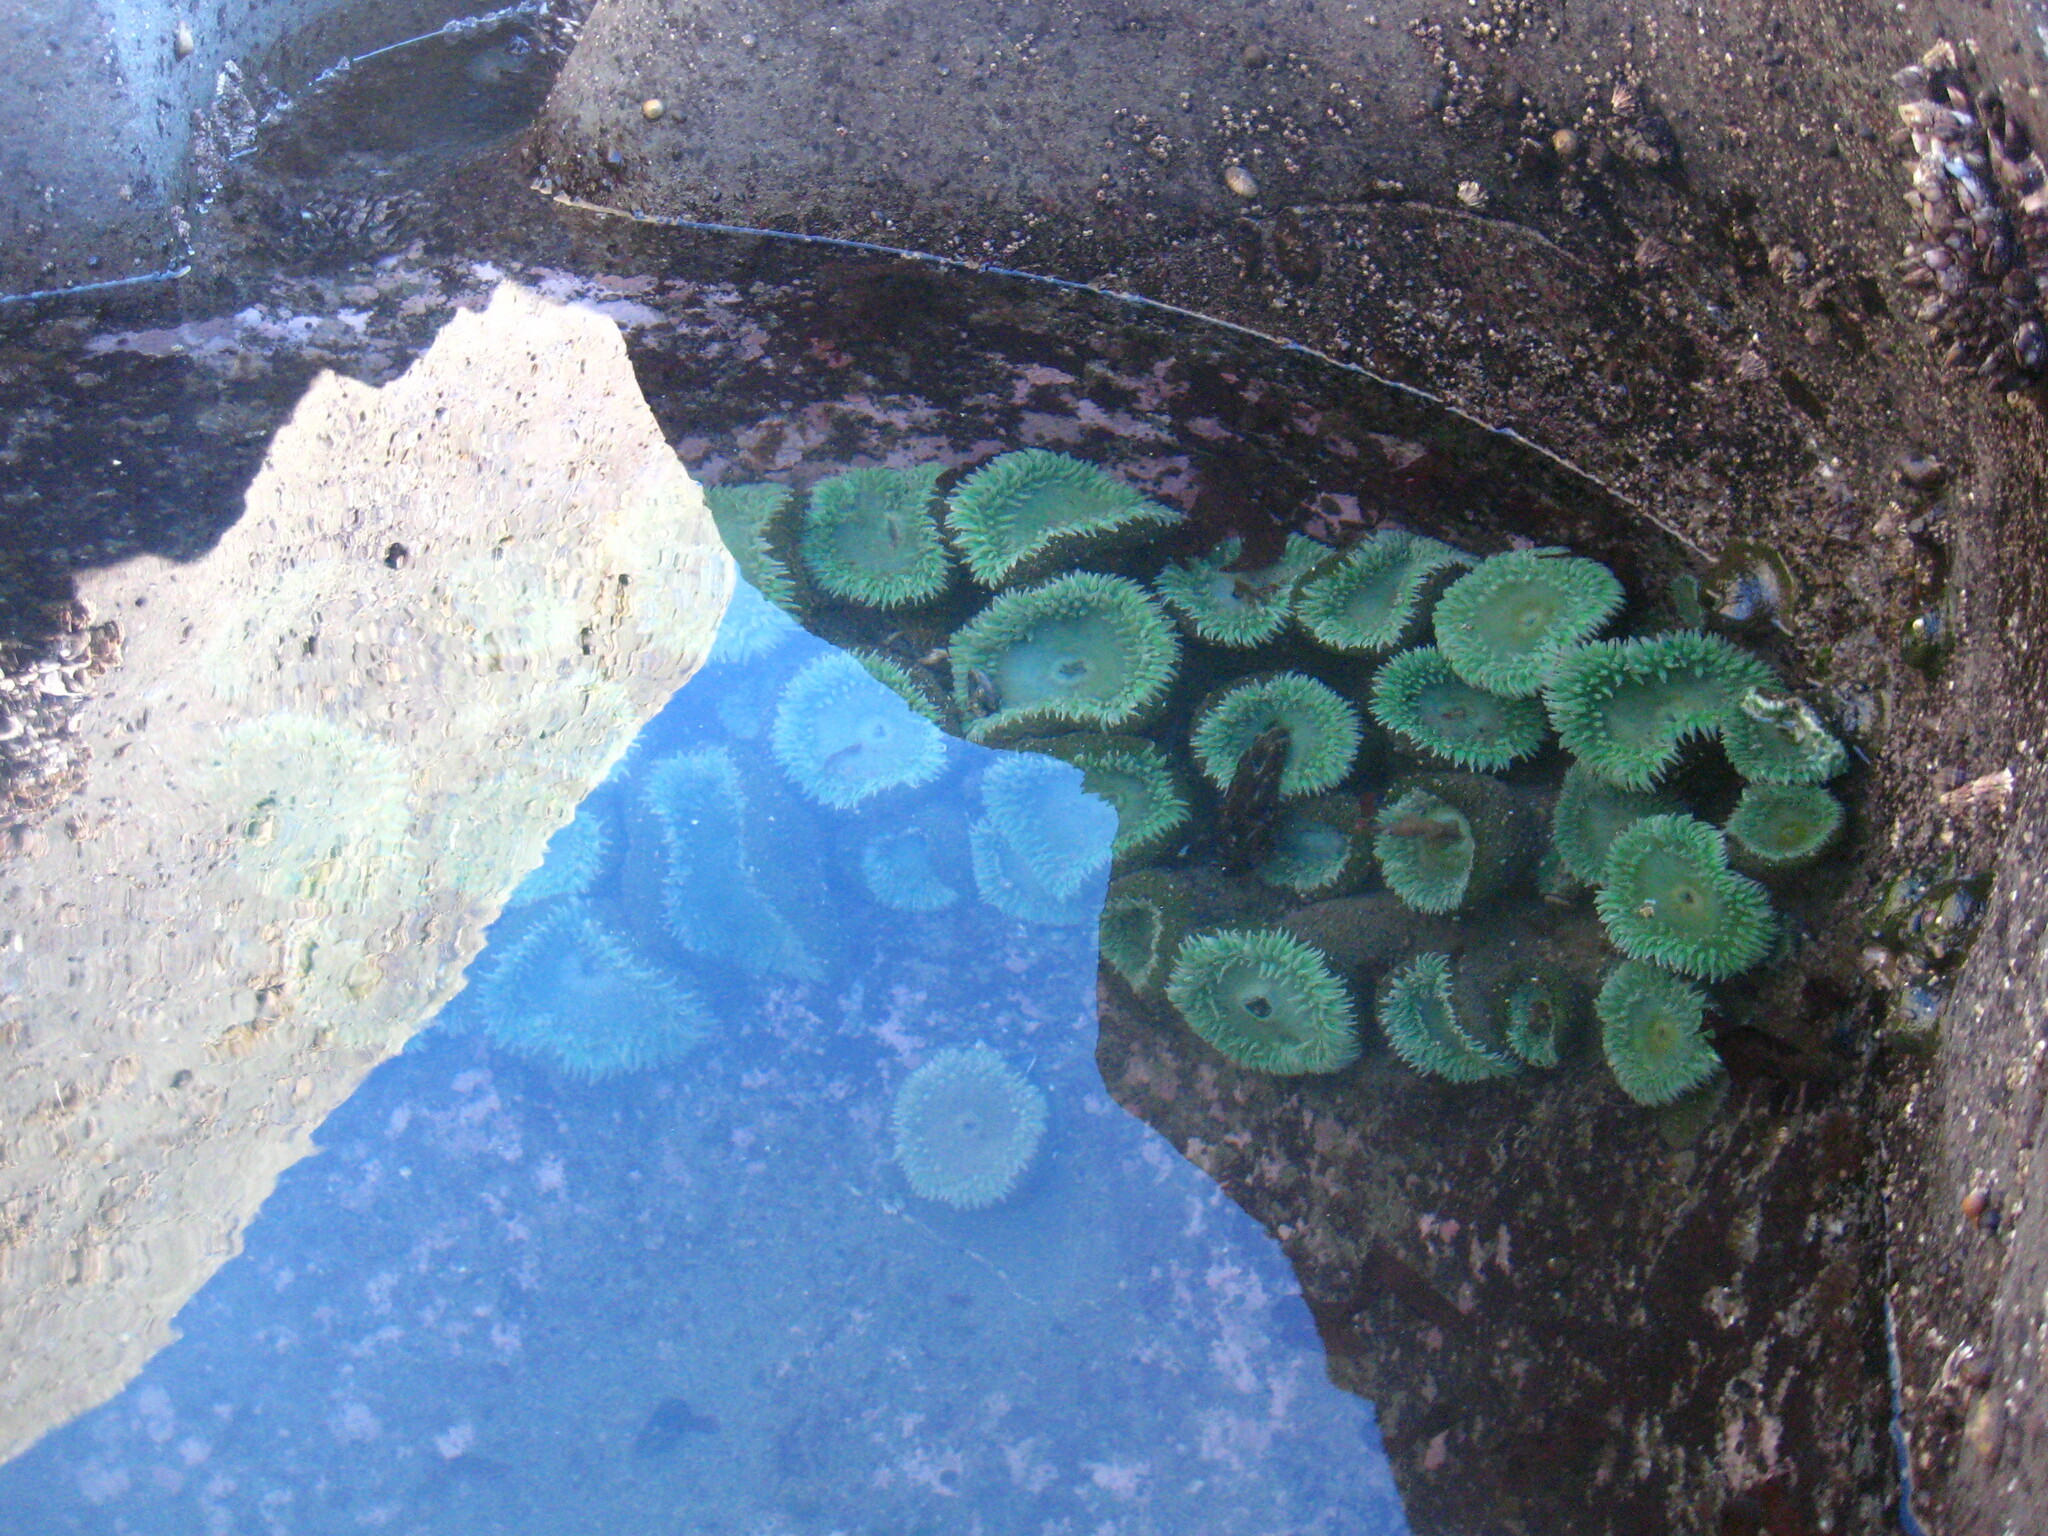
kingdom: Animalia
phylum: Cnidaria
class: Anthozoa
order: Actiniaria
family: Actiniidae
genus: Anthopleura
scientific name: Anthopleura xanthogrammica
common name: Giant green anemone
